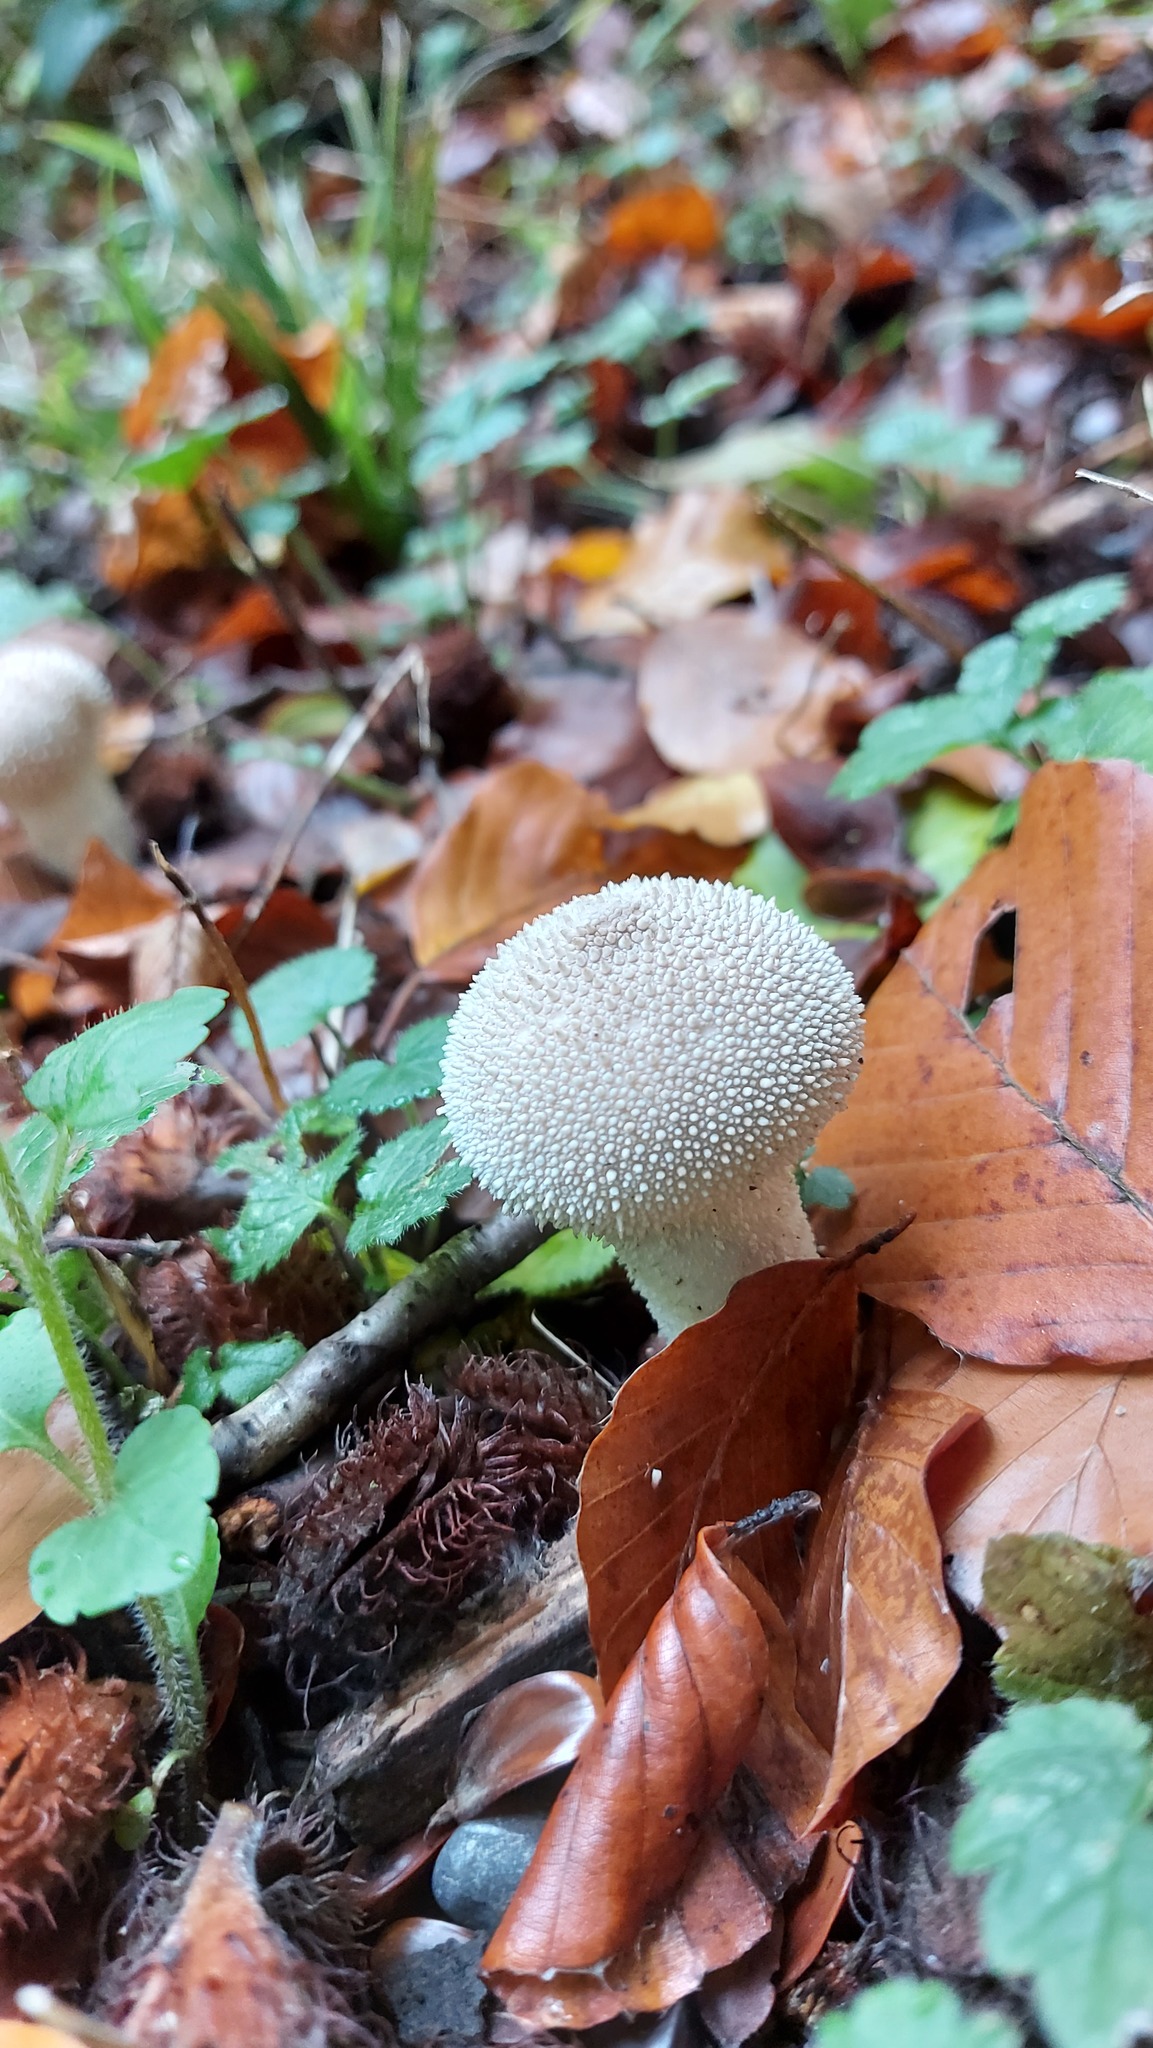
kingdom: Fungi
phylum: Basidiomycota
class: Agaricomycetes
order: Agaricales
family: Lycoperdaceae
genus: Lycoperdon
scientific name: Lycoperdon perlatum
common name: Common puffball
